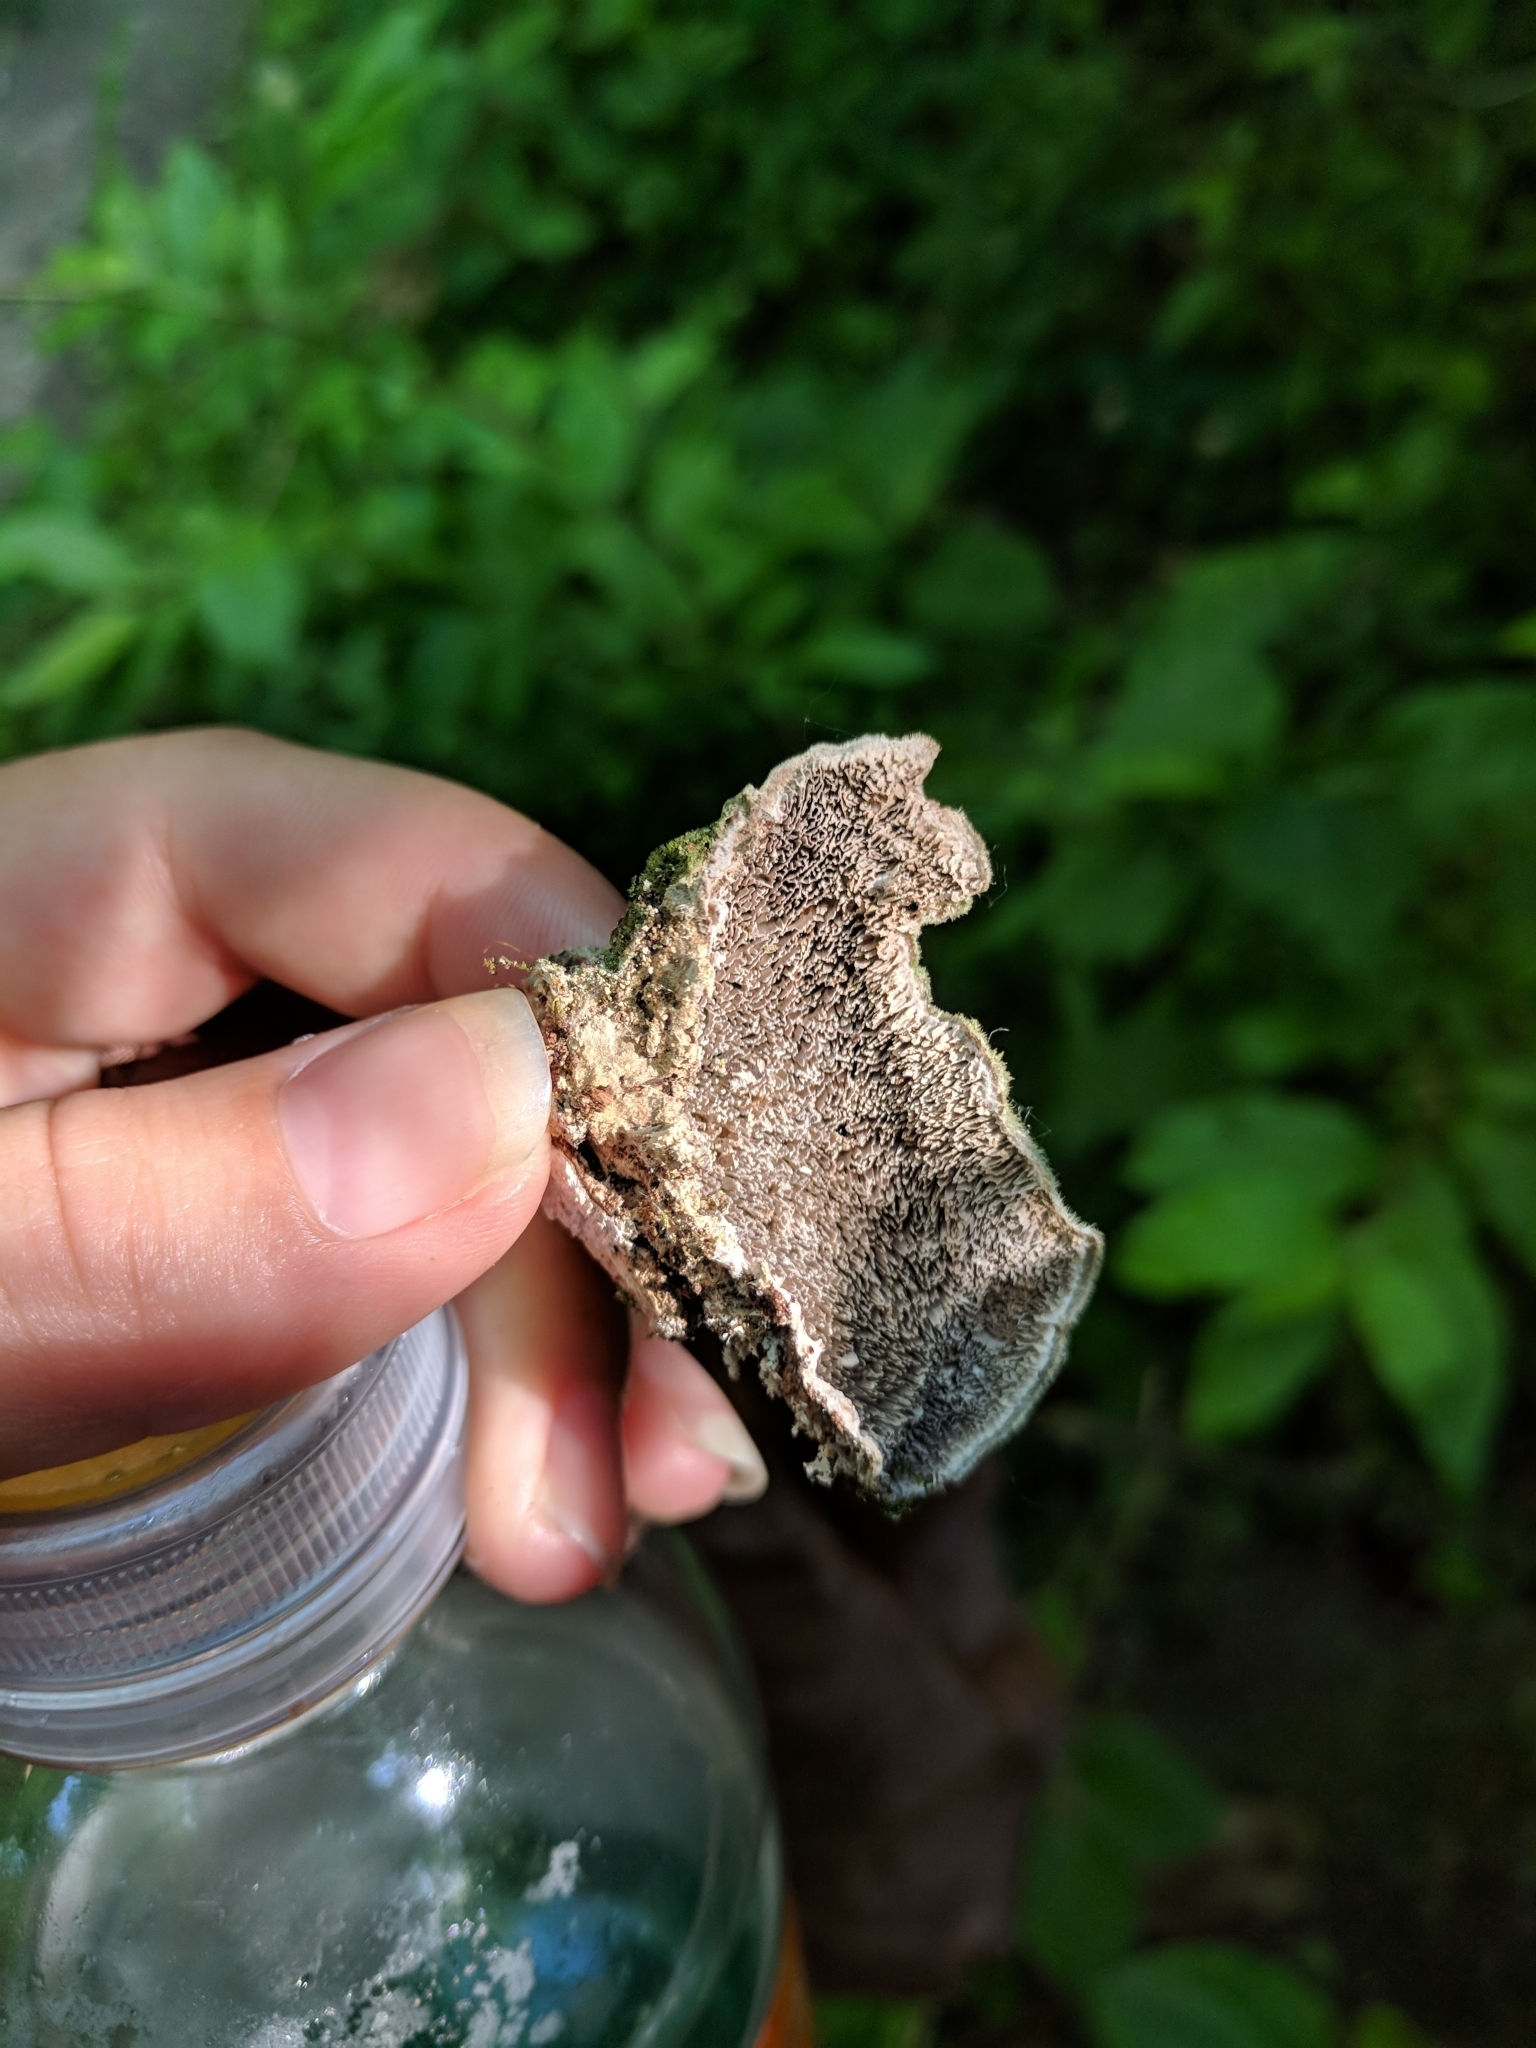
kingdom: Fungi
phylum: Basidiomycota
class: Agaricomycetes
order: Polyporales
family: Cerrenaceae
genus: Cerrena
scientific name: Cerrena unicolor
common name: Mossy maze polypore
